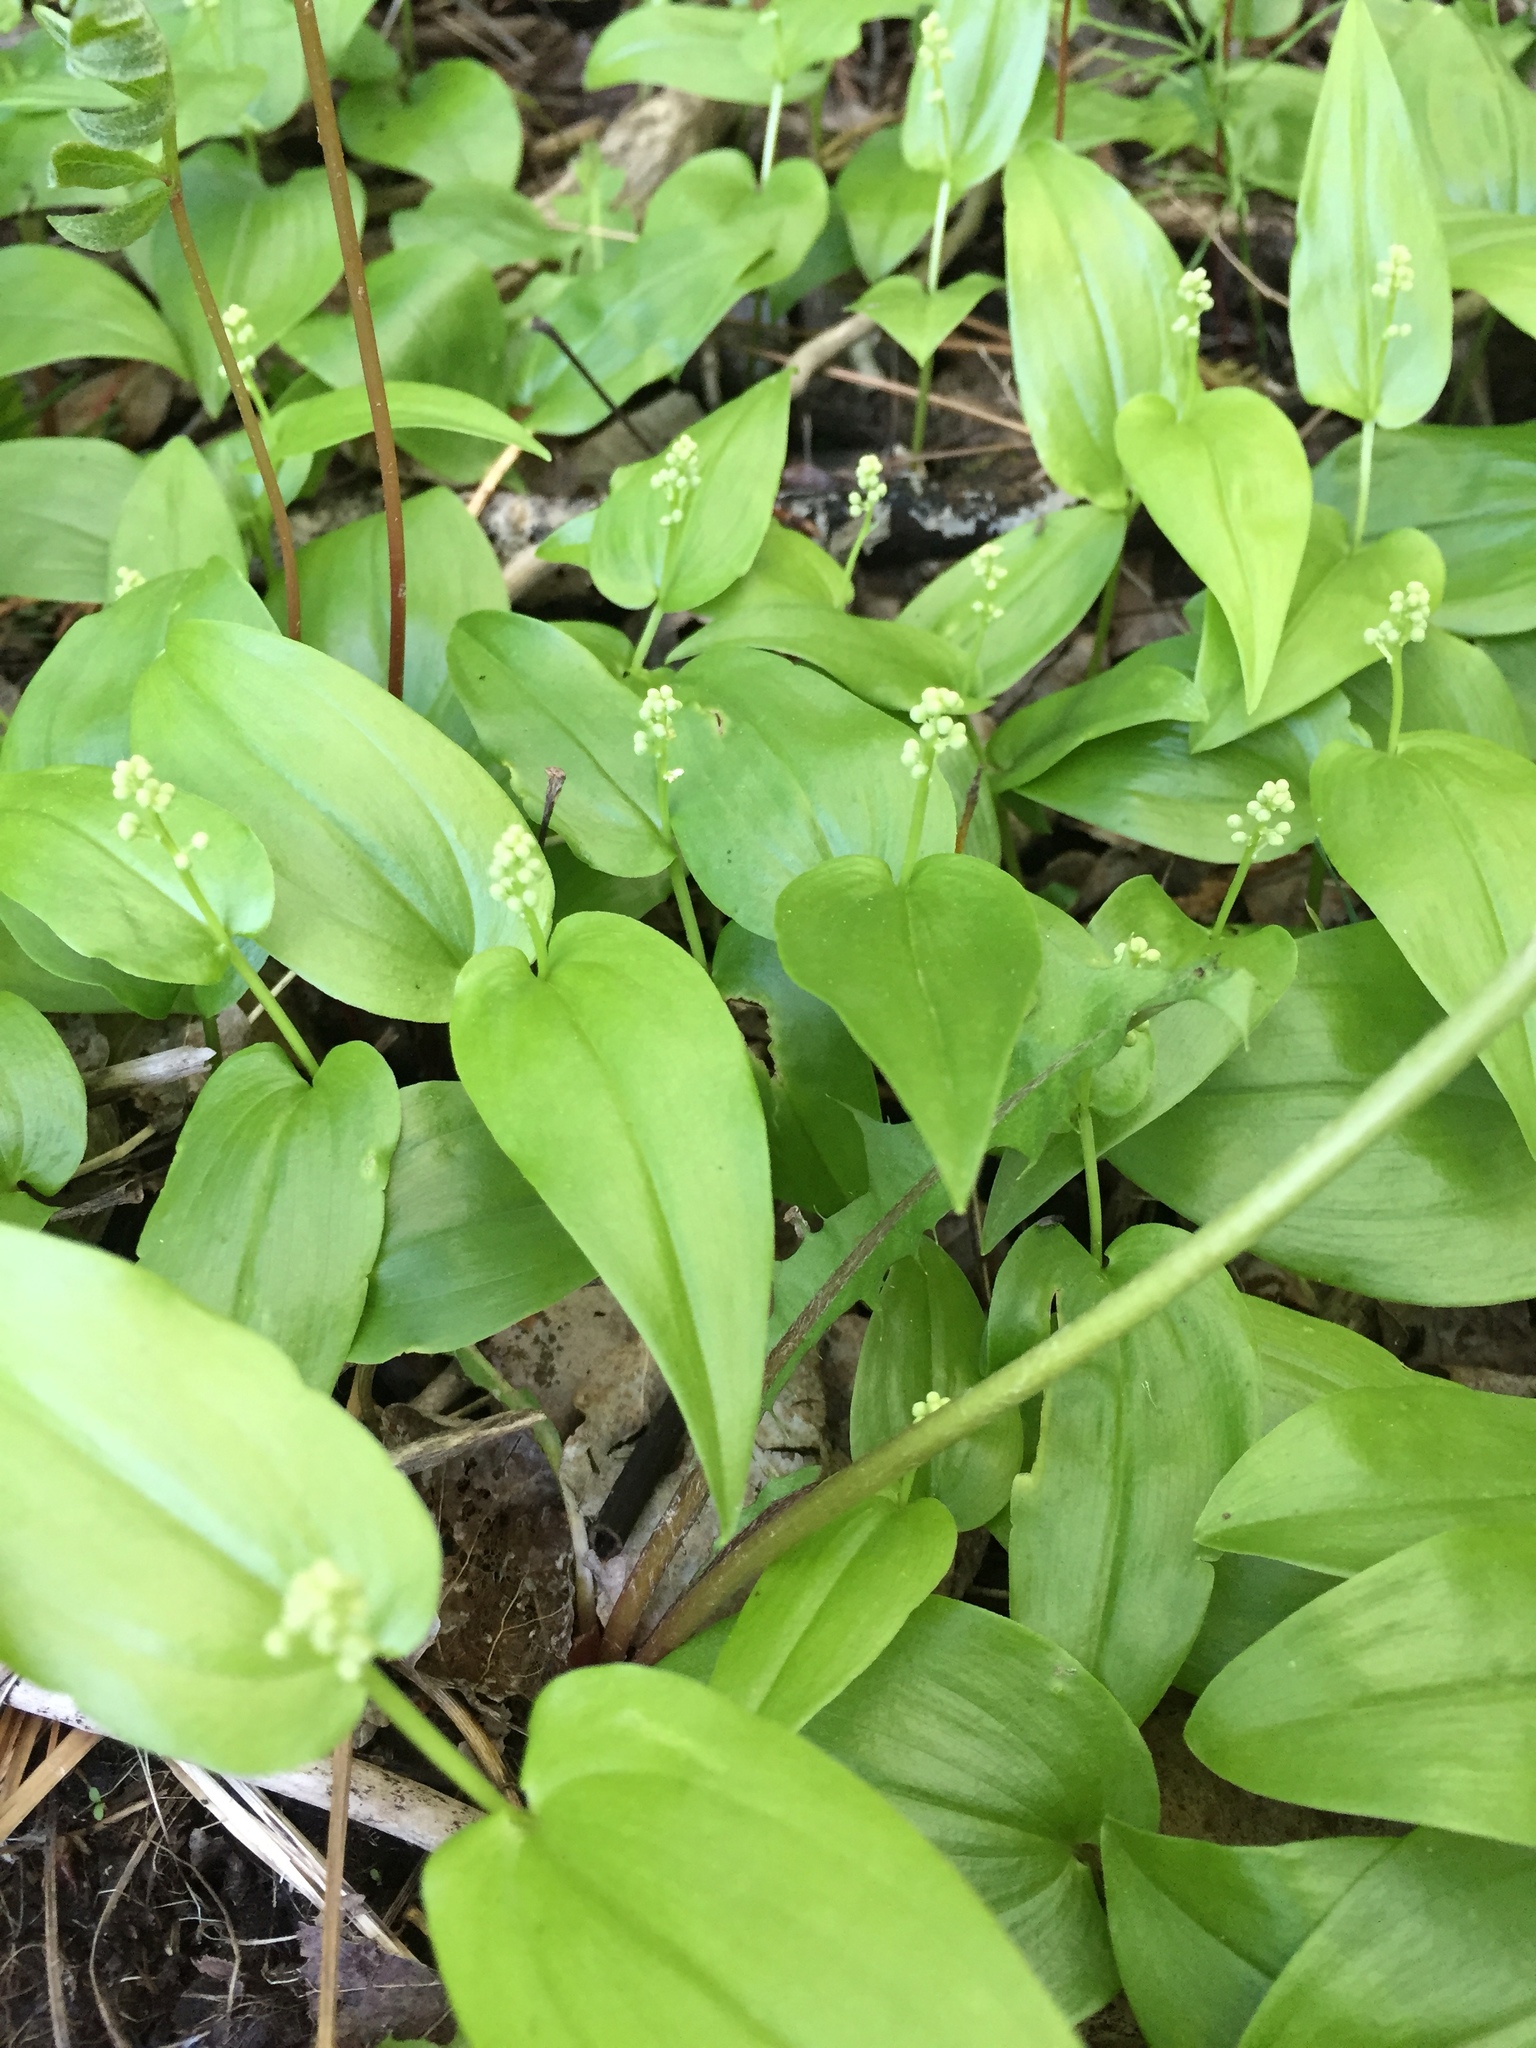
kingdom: Plantae
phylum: Tracheophyta
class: Liliopsida
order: Asparagales
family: Asparagaceae
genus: Maianthemum
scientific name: Maianthemum canadense
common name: False lily-of-the-valley
